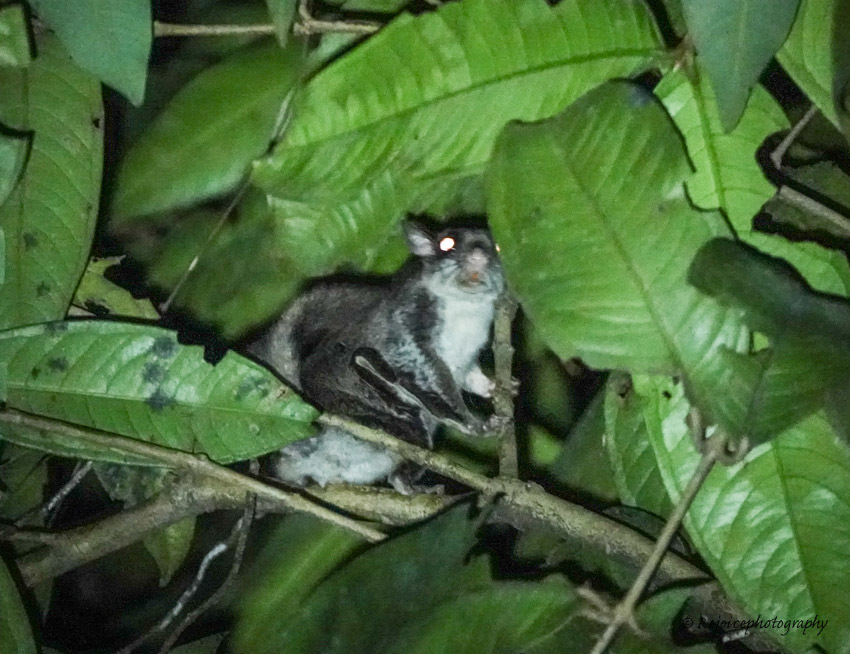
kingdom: Animalia
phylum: Chordata
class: Mammalia
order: Rodentia
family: Sciuridae
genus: Hylopetes
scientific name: Hylopetes alboniger
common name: Particolored flying squirrel
